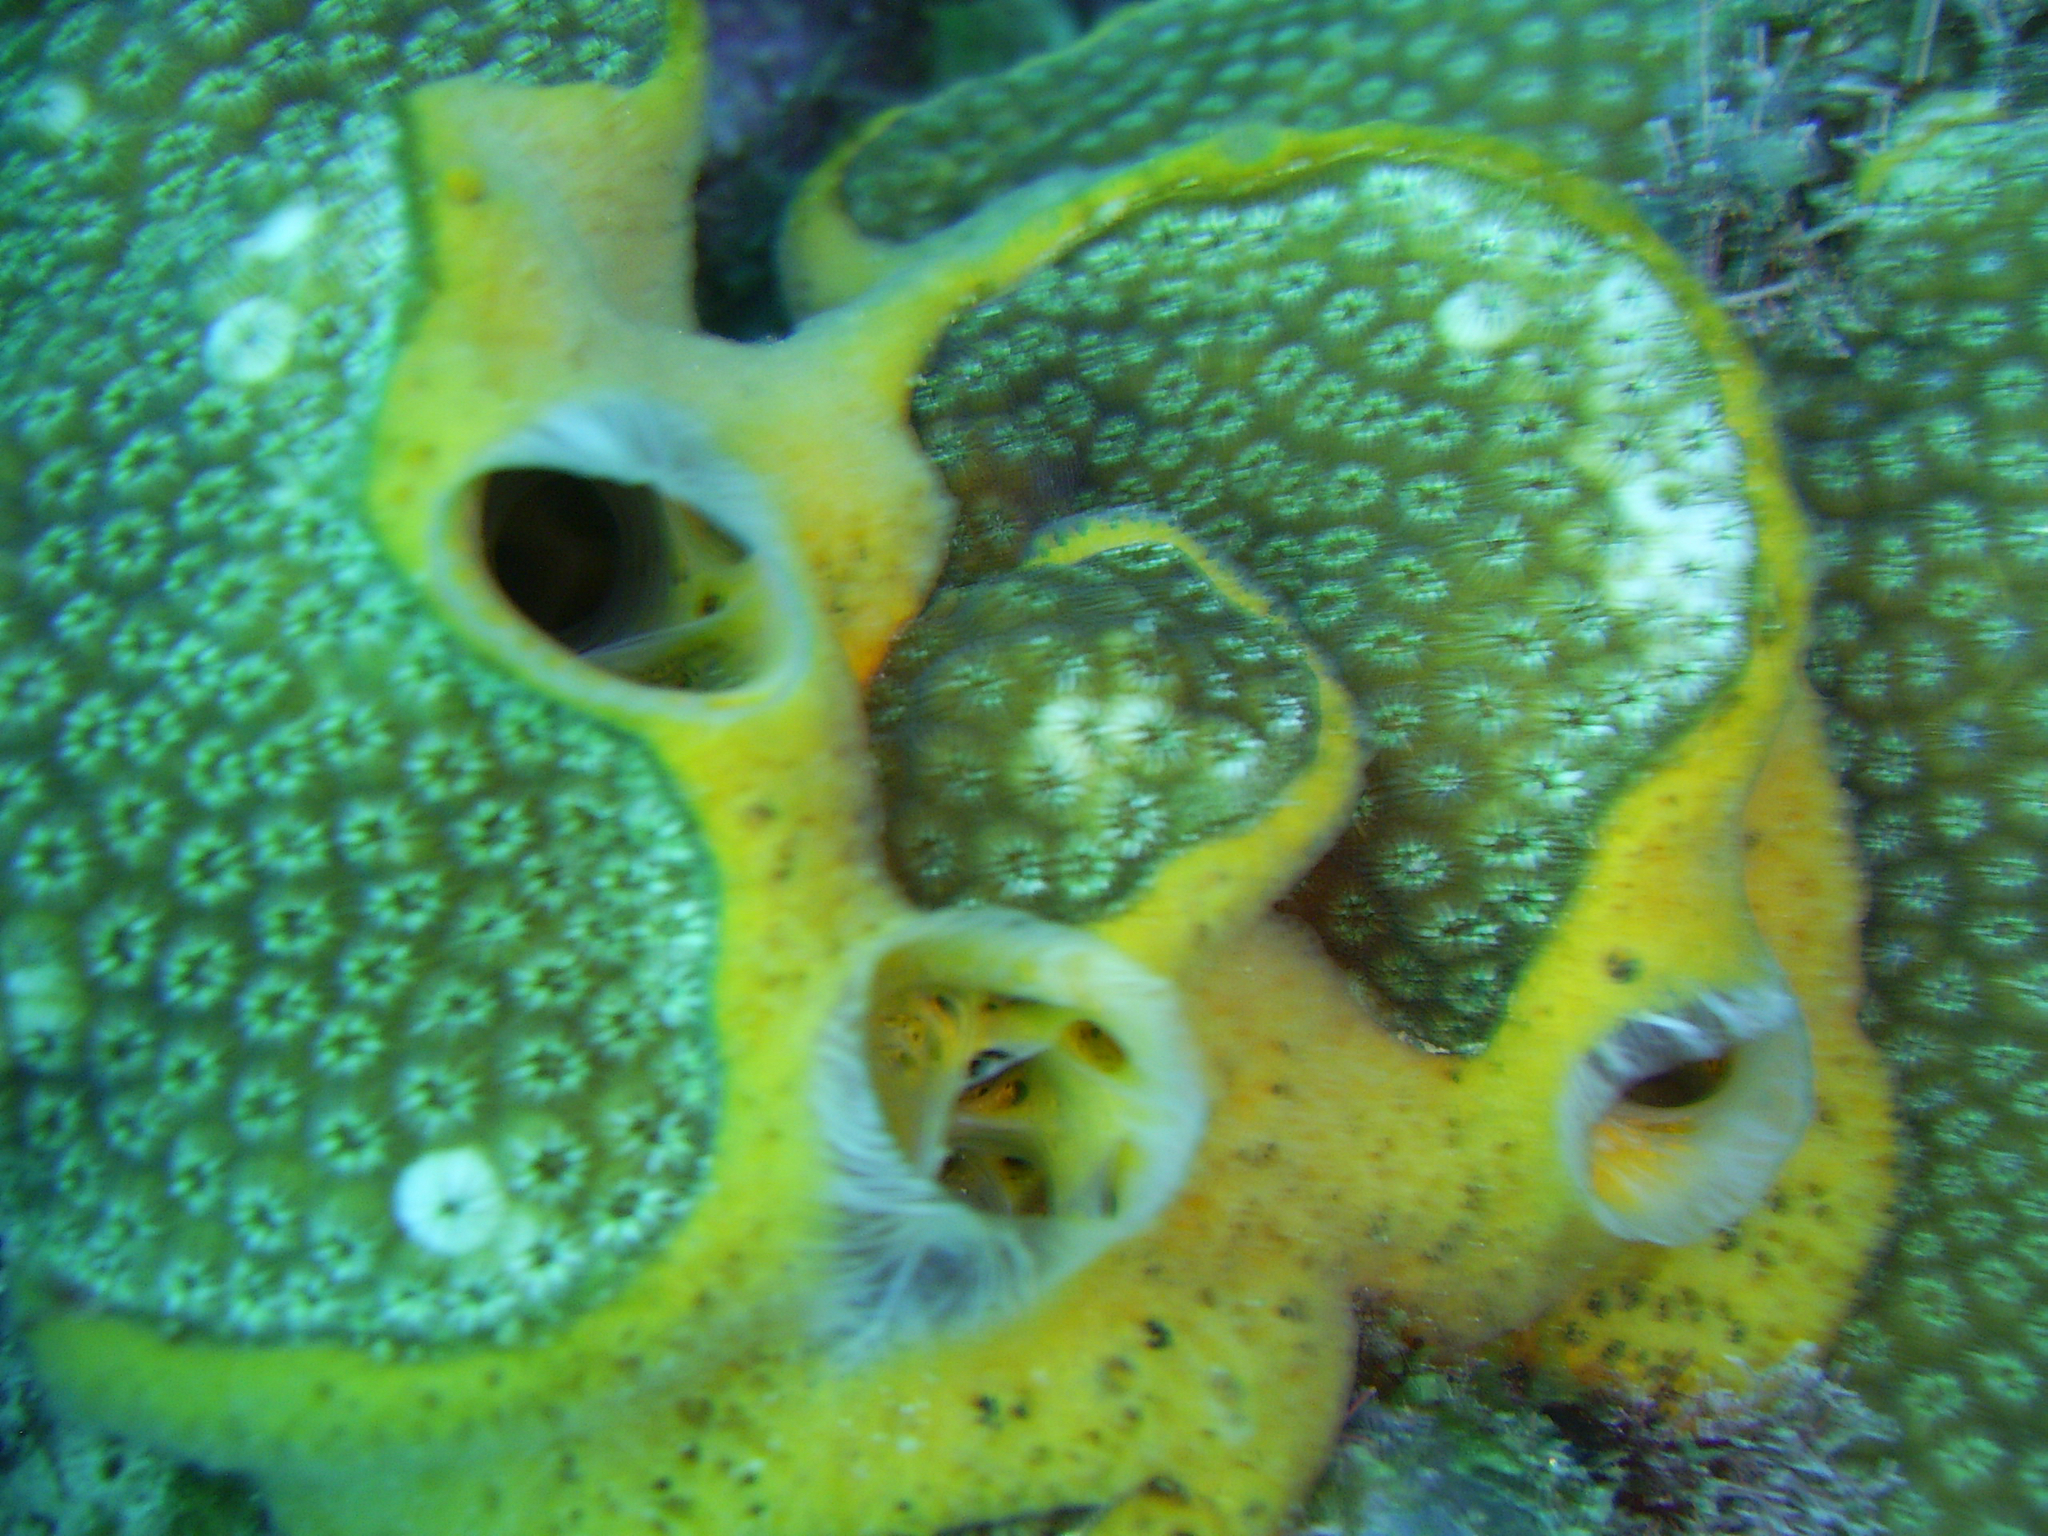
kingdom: Animalia
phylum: Porifera
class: Demospongiae
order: Poecilosclerida
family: Mycalidae
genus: Mycale
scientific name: Mycale laevis
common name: Orange icing sponge
